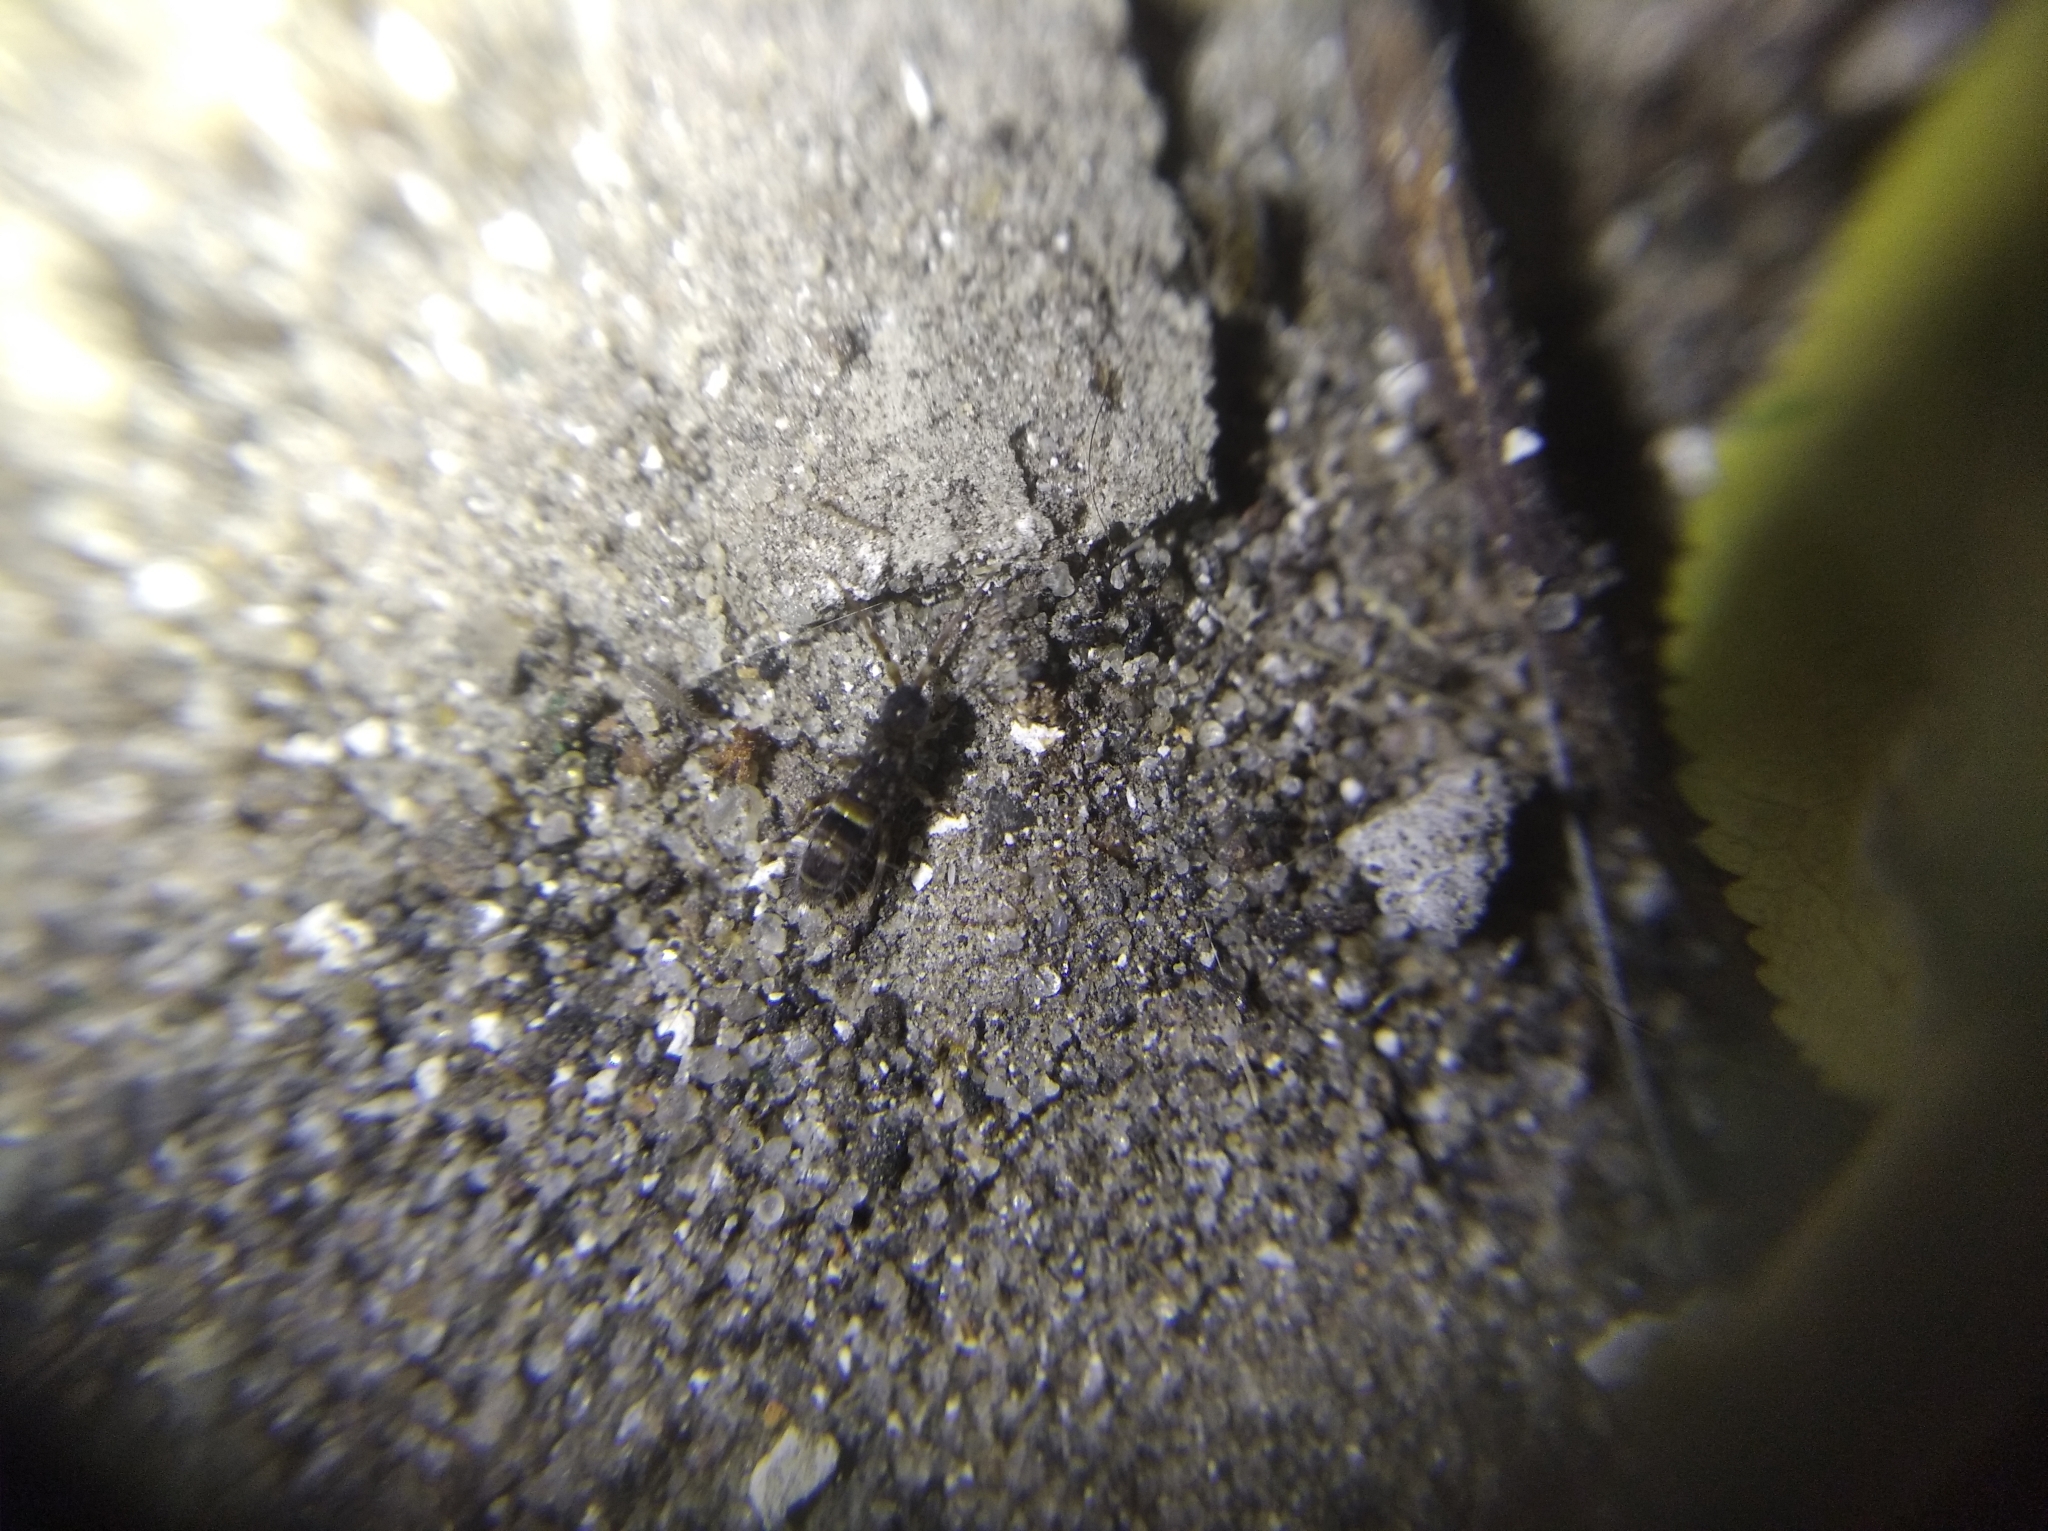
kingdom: Animalia
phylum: Arthropoda
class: Collembola
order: Entomobryomorpha
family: Orchesellidae
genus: Orchesella
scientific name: Orchesella cincta
